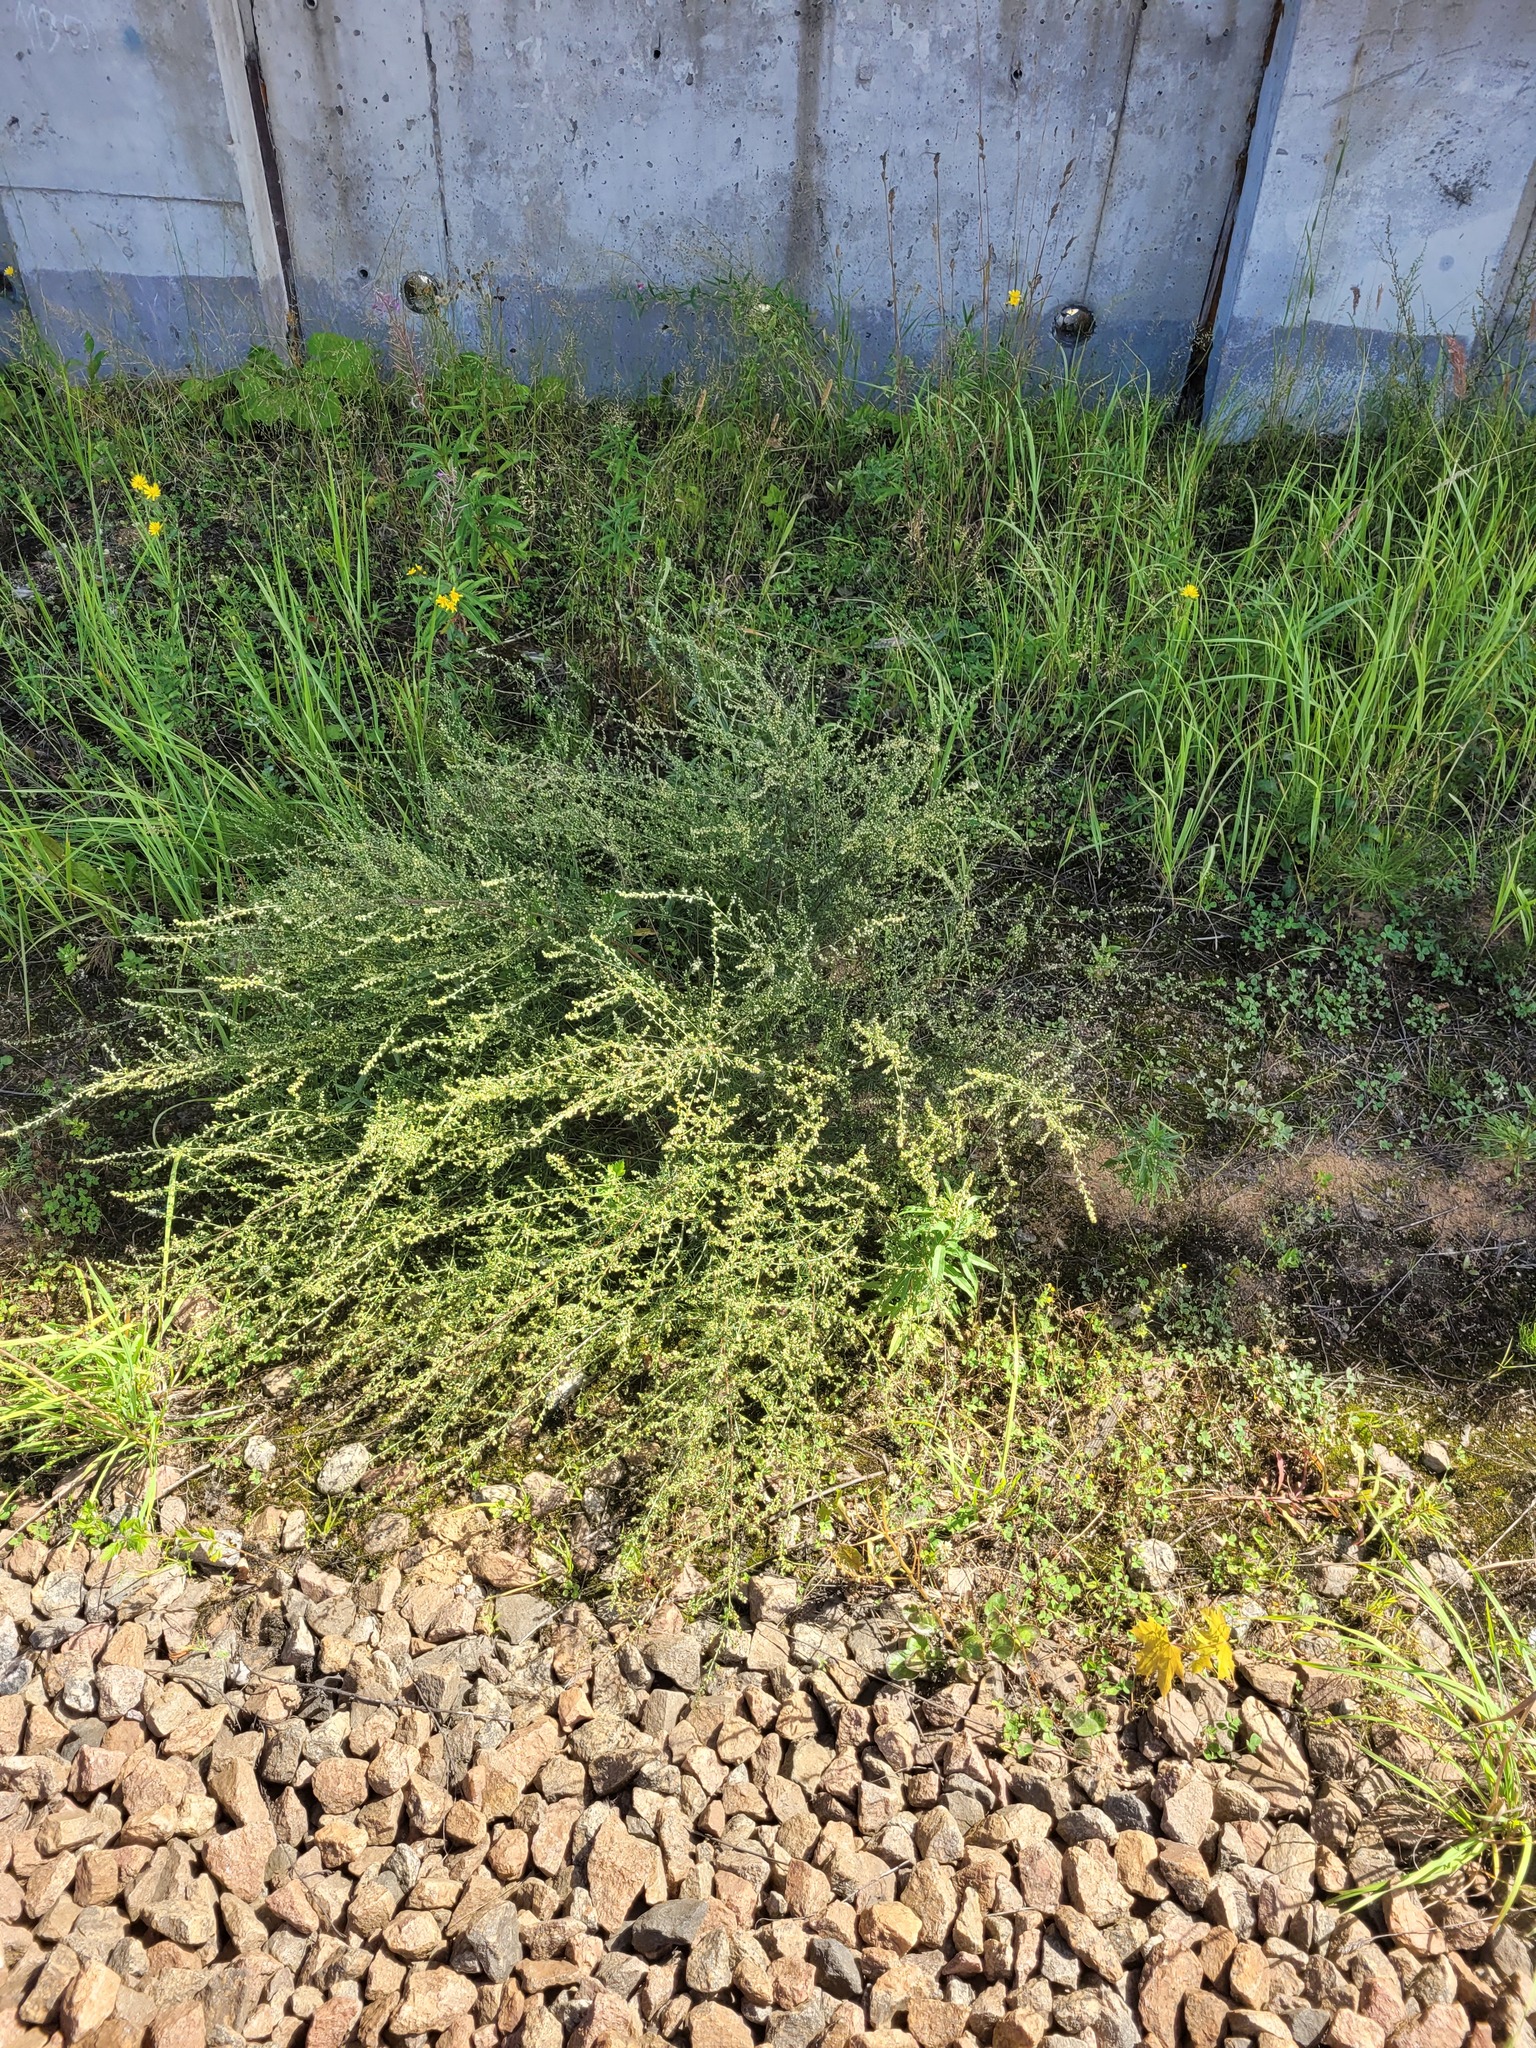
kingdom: Plantae
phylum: Tracheophyta
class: Magnoliopsida
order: Asterales
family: Asteraceae
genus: Artemisia
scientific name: Artemisia campestris
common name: Field wormwood
